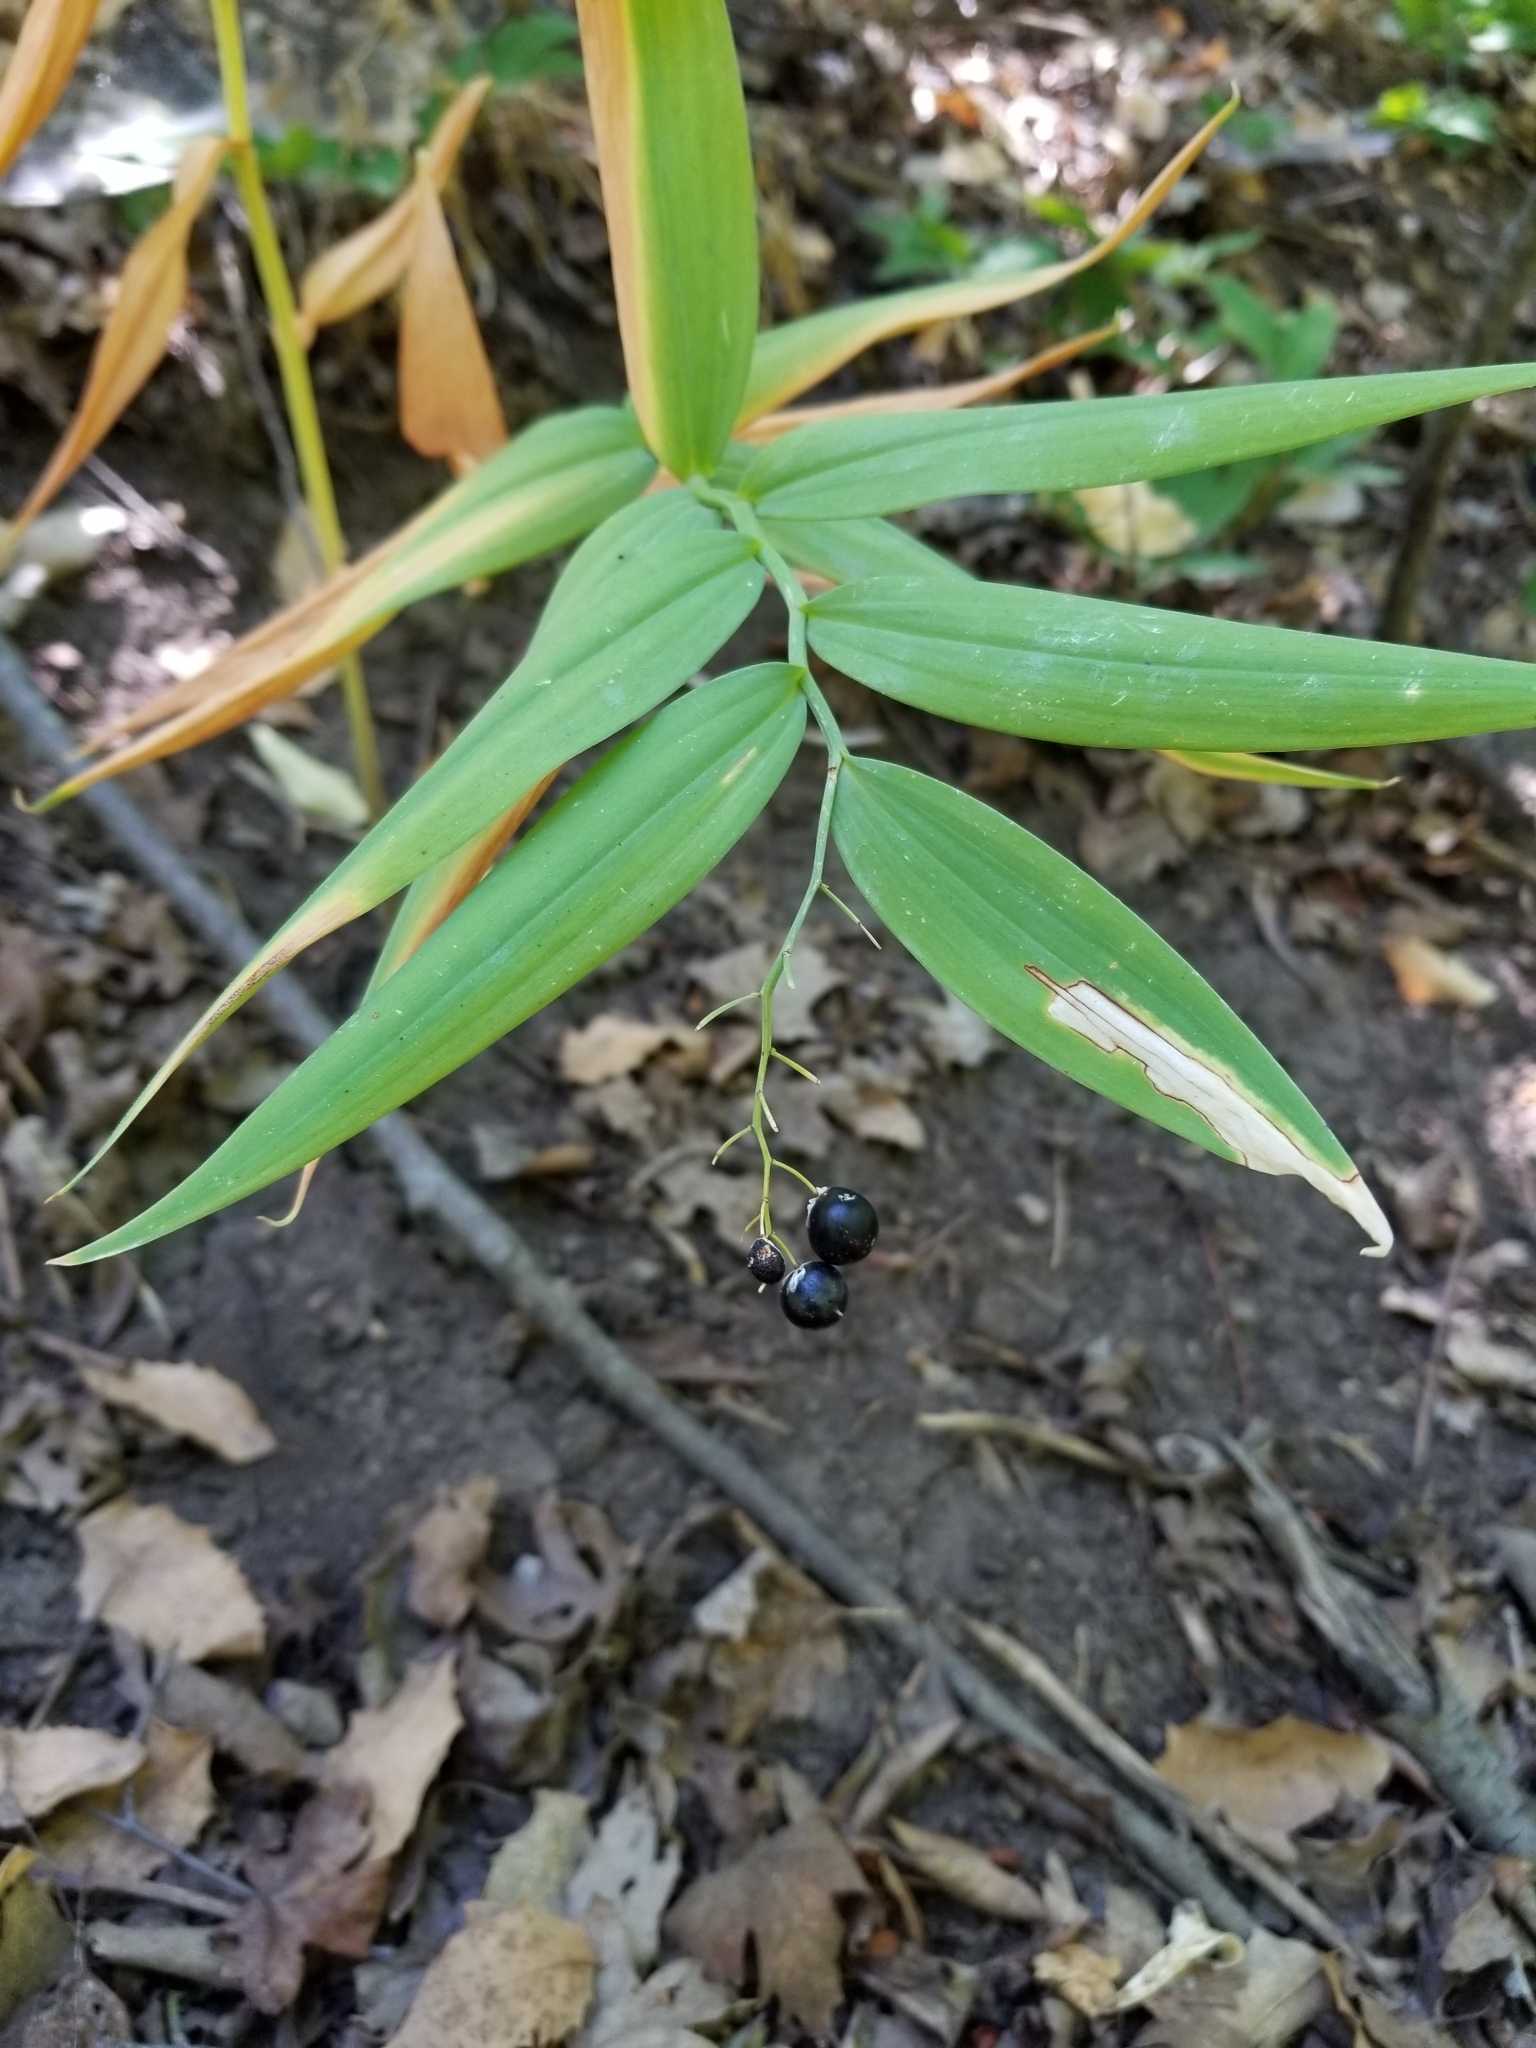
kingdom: Plantae
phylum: Tracheophyta
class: Liliopsida
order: Asparagales
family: Asparagaceae
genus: Maianthemum
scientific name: Maianthemum stellatum
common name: Little false solomon's seal
